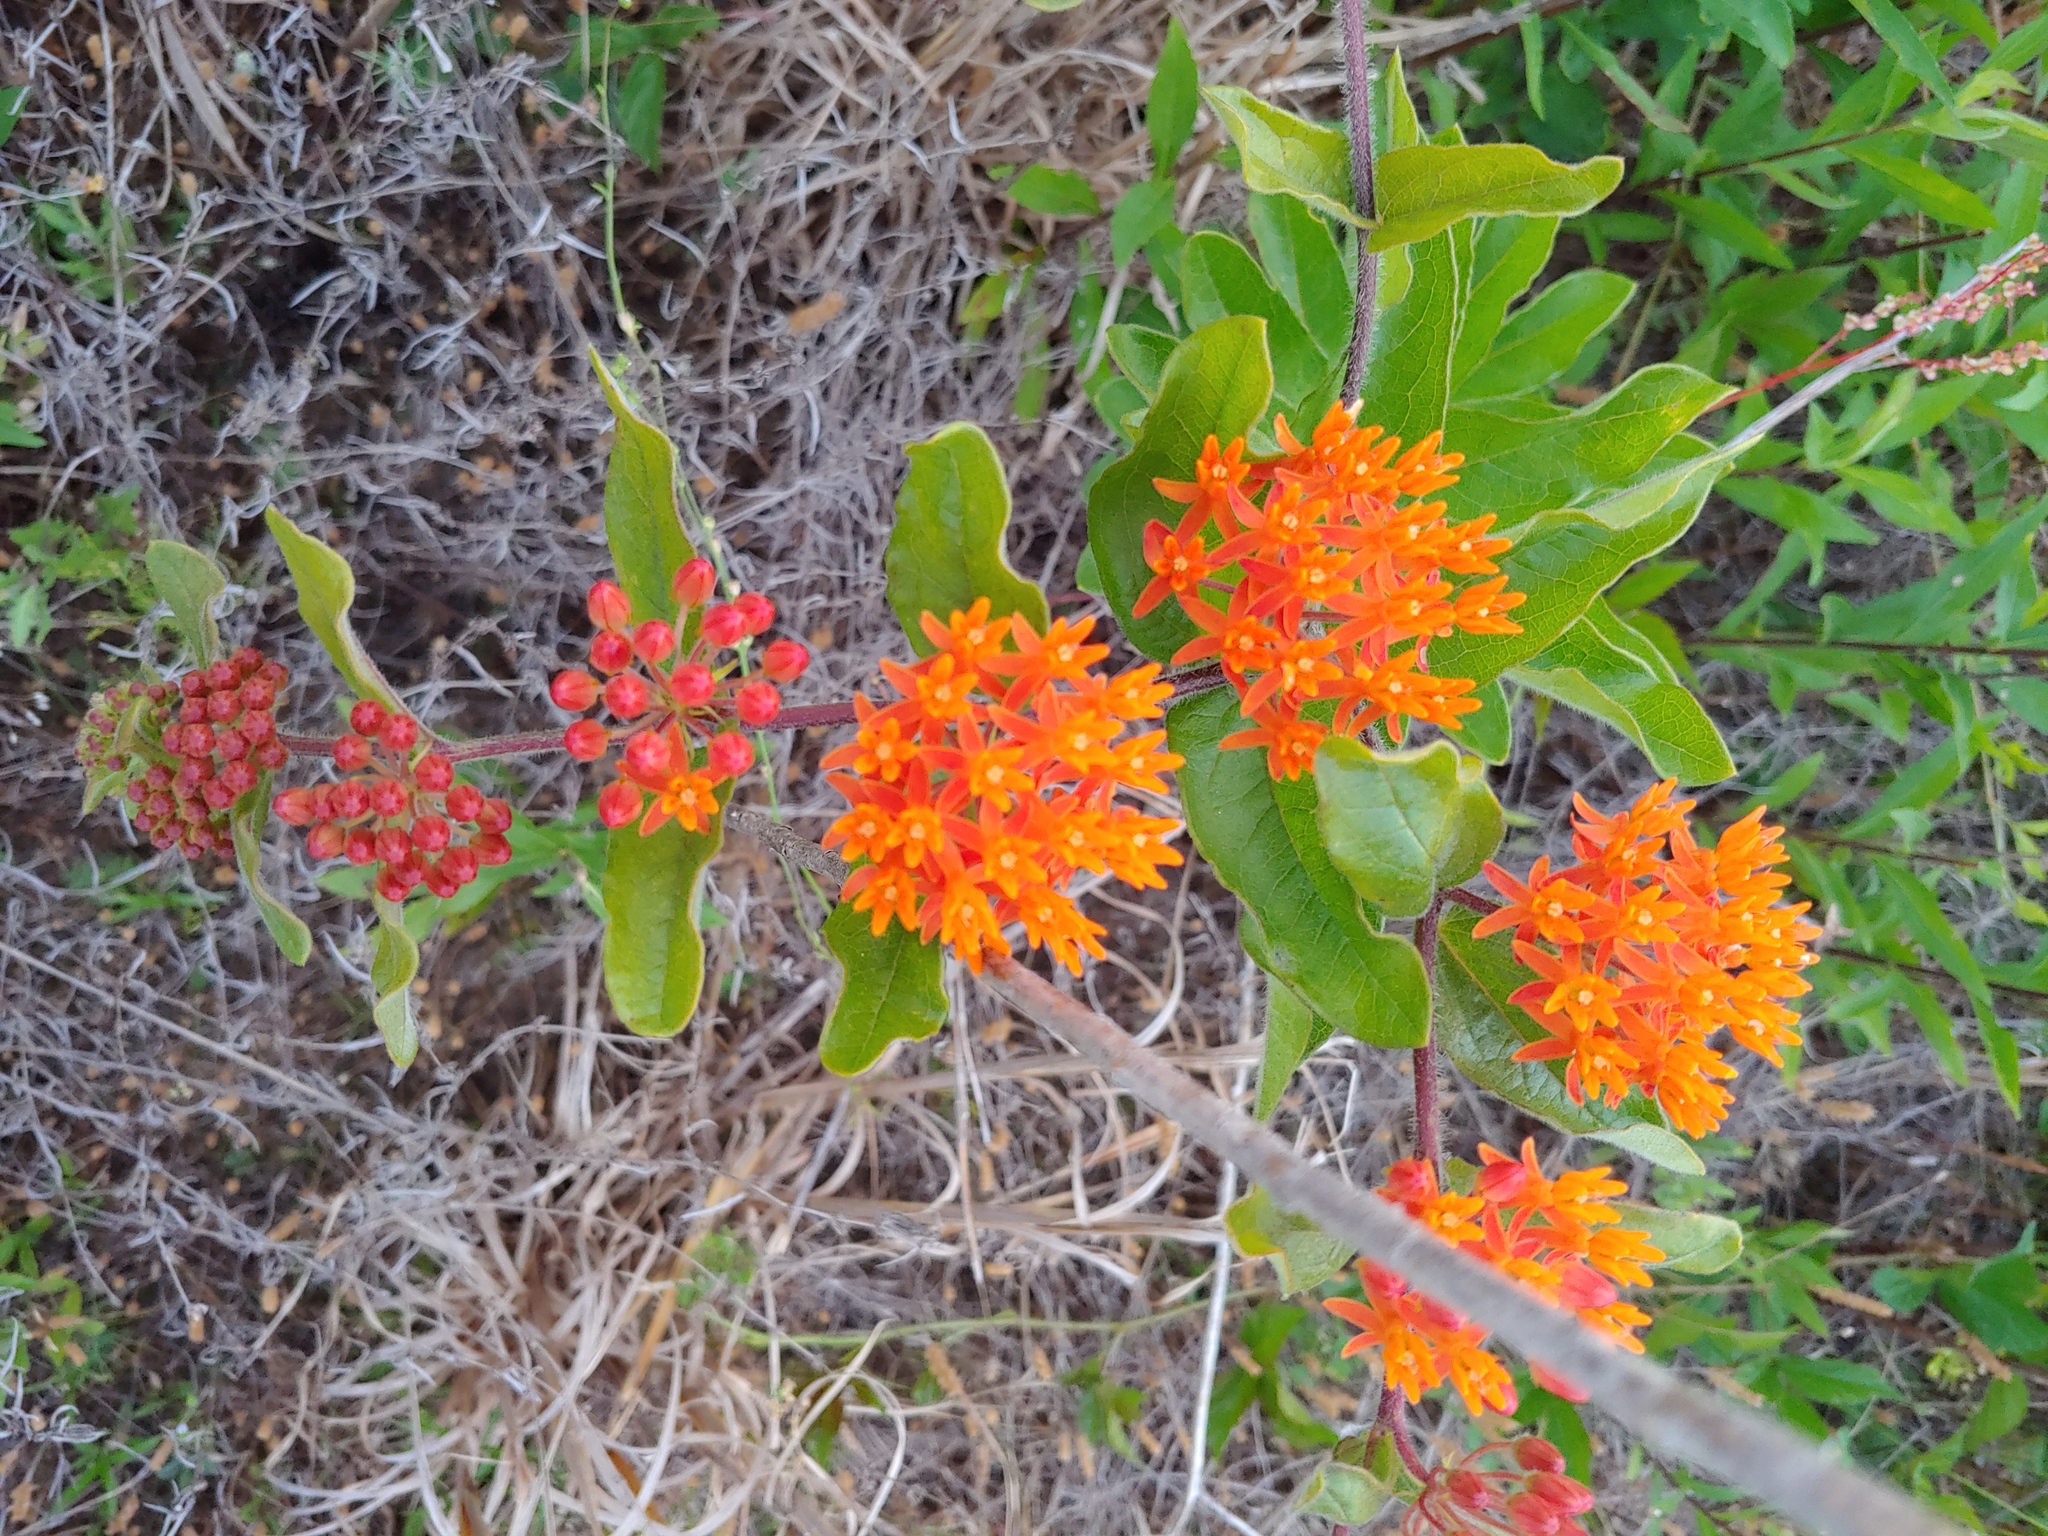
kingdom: Plantae
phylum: Tracheophyta
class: Magnoliopsida
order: Gentianales
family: Apocynaceae
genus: Asclepias
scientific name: Asclepias tuberosa
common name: Butterfly milkweed
